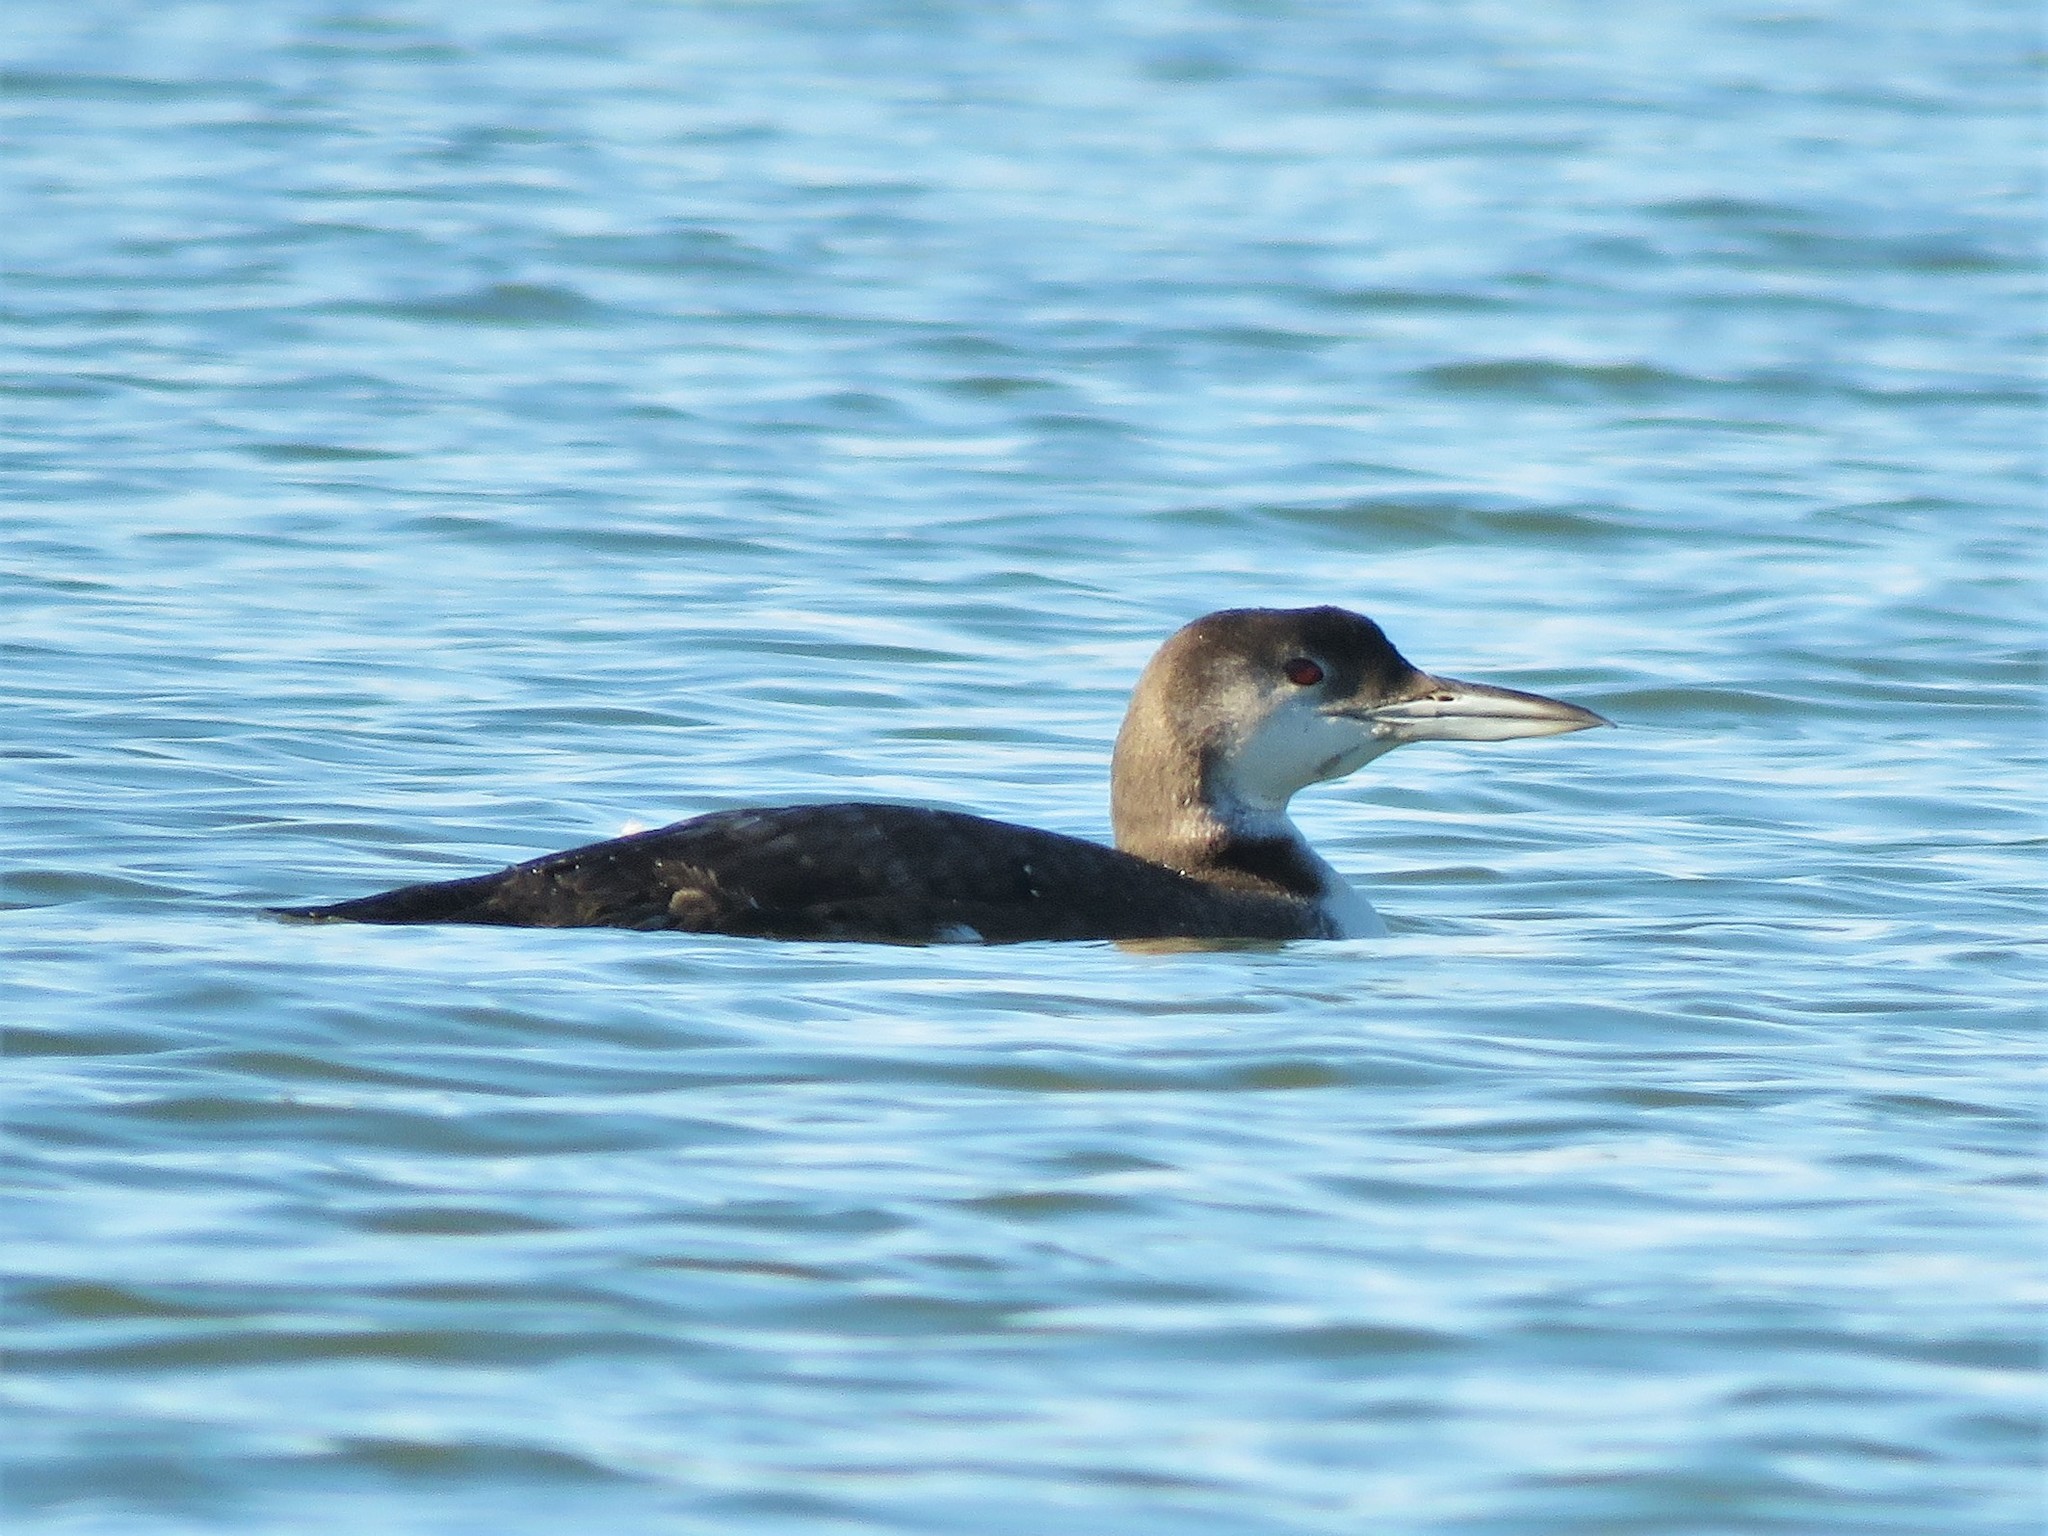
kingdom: Animalia
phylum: Chordata
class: Aves
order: Gaviiformes
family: Gaviidae
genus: Gavia
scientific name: Gavia immer
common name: Common loon
